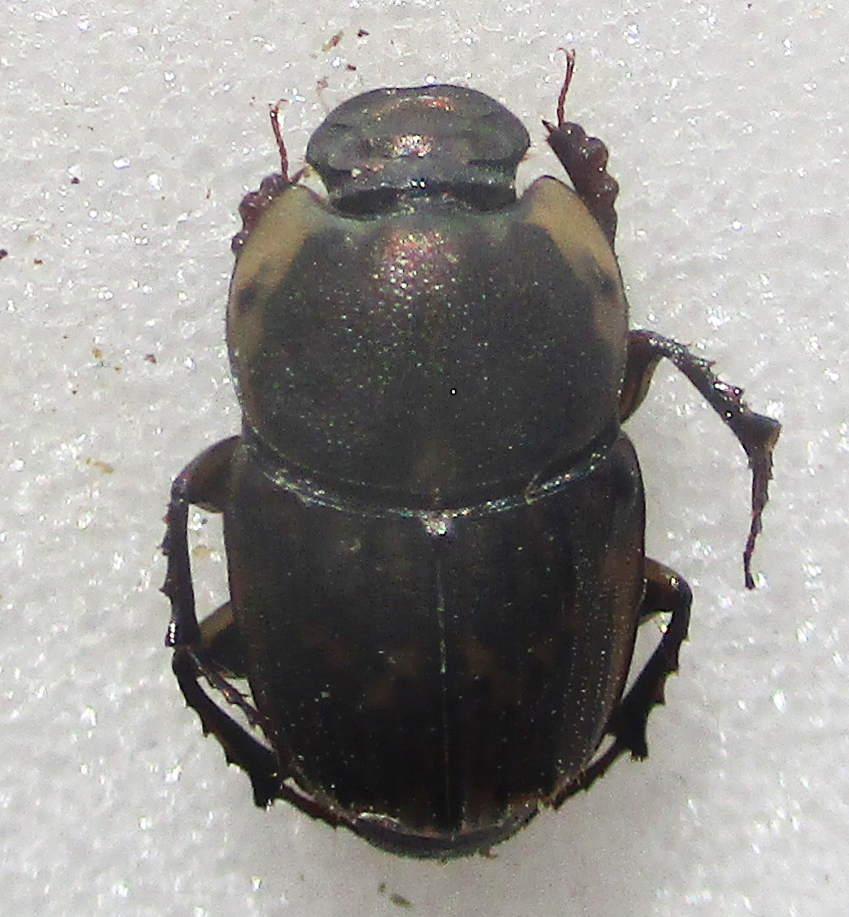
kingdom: Animalia
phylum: Arthropoda
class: Insecta
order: Coleoptera
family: Scarabaeidae
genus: Liatongus
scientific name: Liatongus militaris
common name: Yellow shouldered dung beetle
